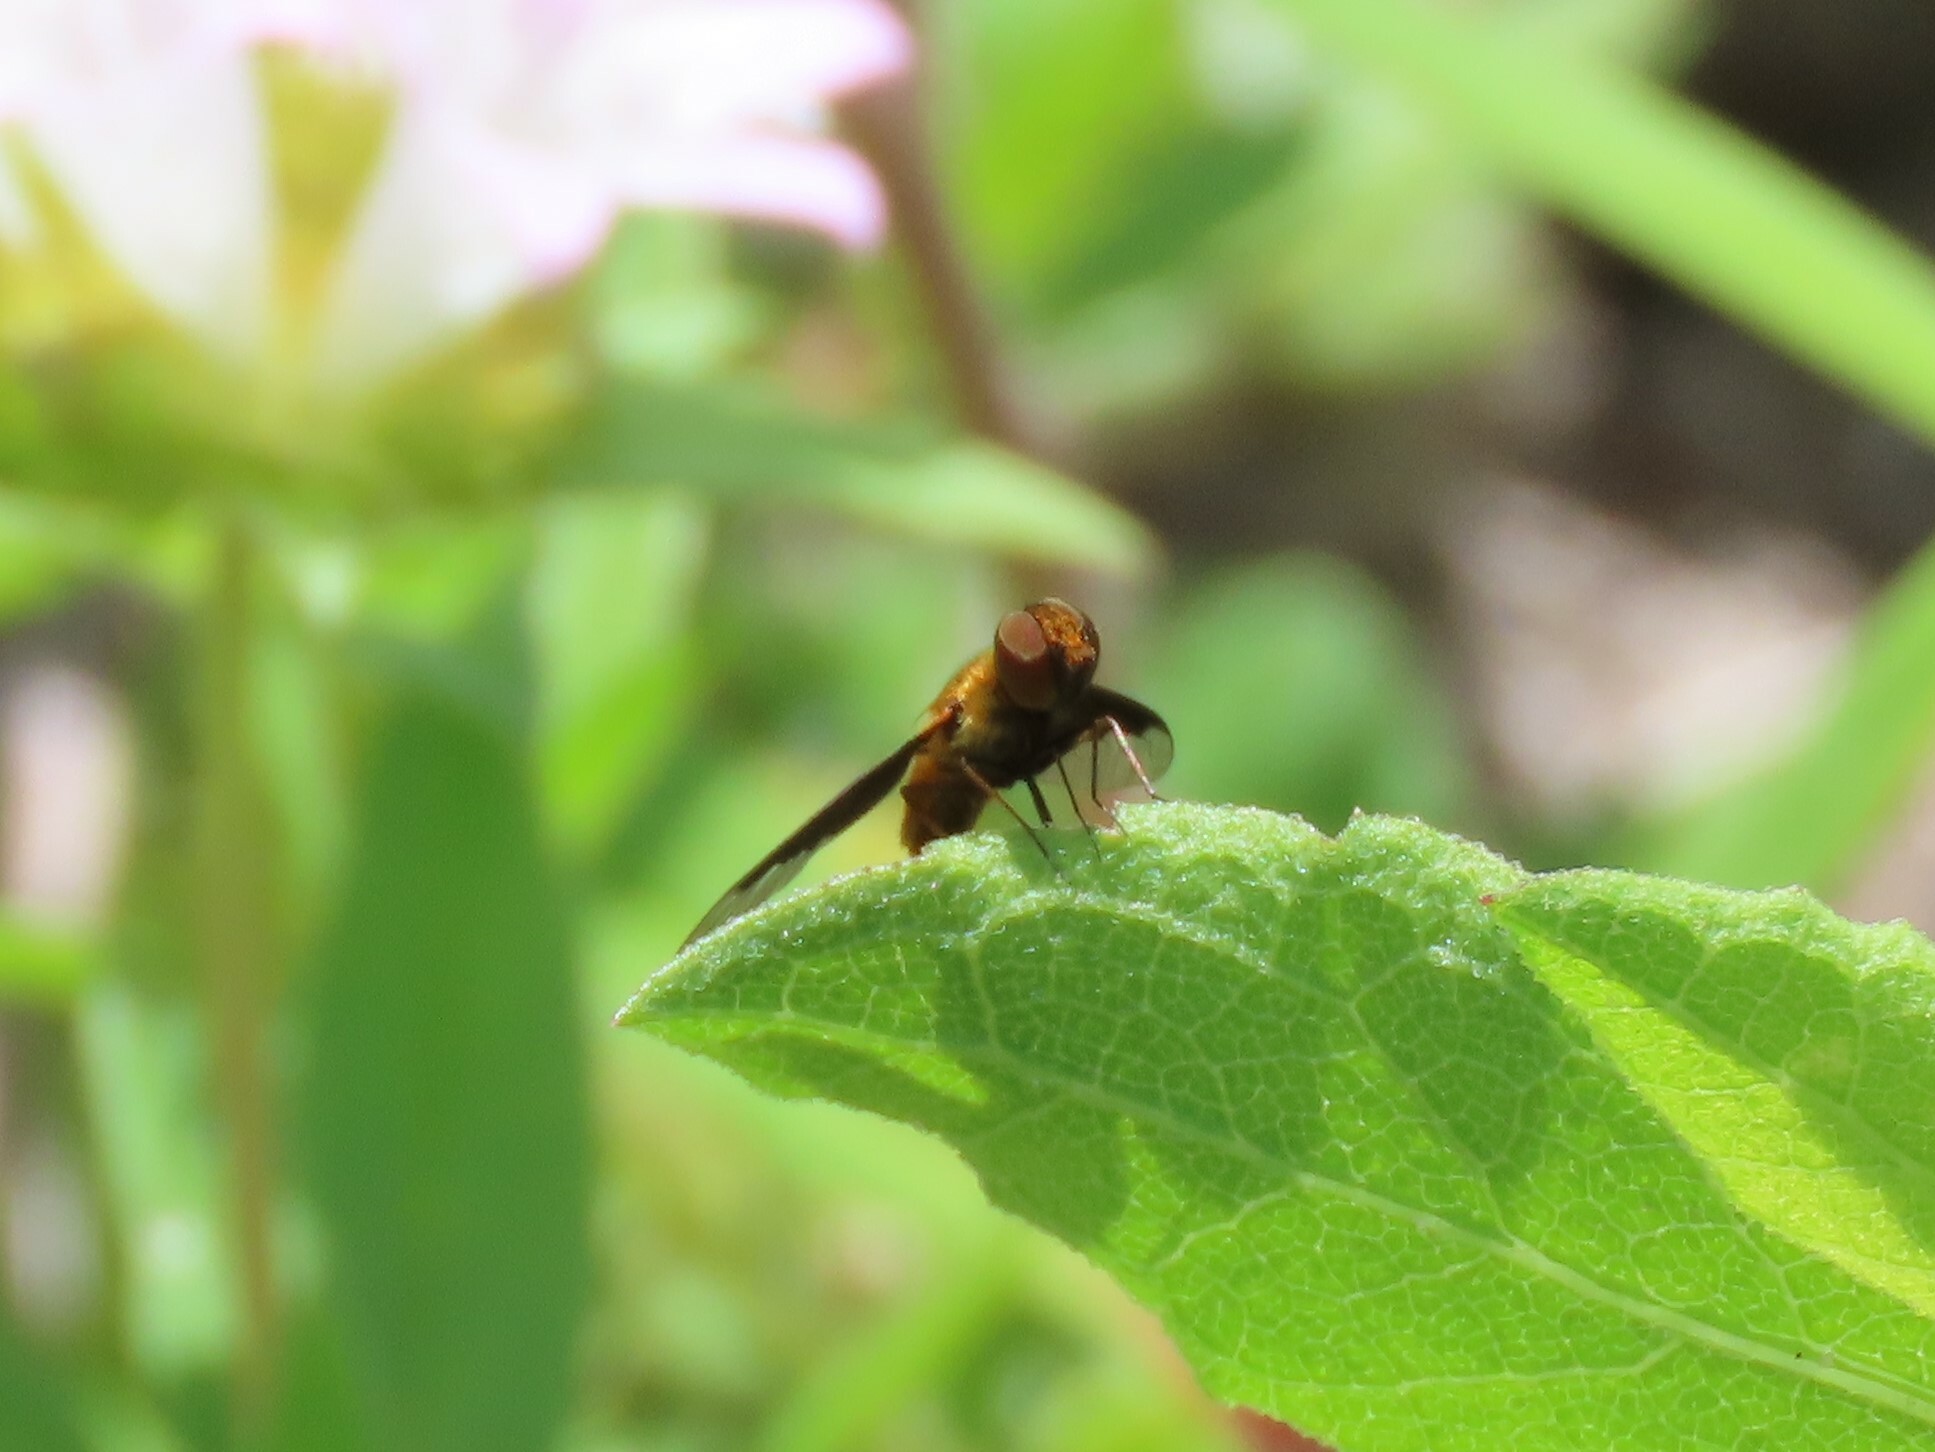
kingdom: Animalia
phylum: Arthropoda
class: Insecta
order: Diptera
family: Bombyliidae
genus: Chrysanthrax
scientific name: Chrysanthrax cypris
